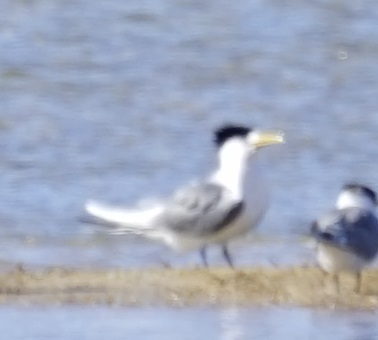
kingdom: Animalia
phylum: Chordata
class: Aves
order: Charadriiformes
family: Laridae
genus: Thalasseus
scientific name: Thalasseus bergii
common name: Greater crested tern
